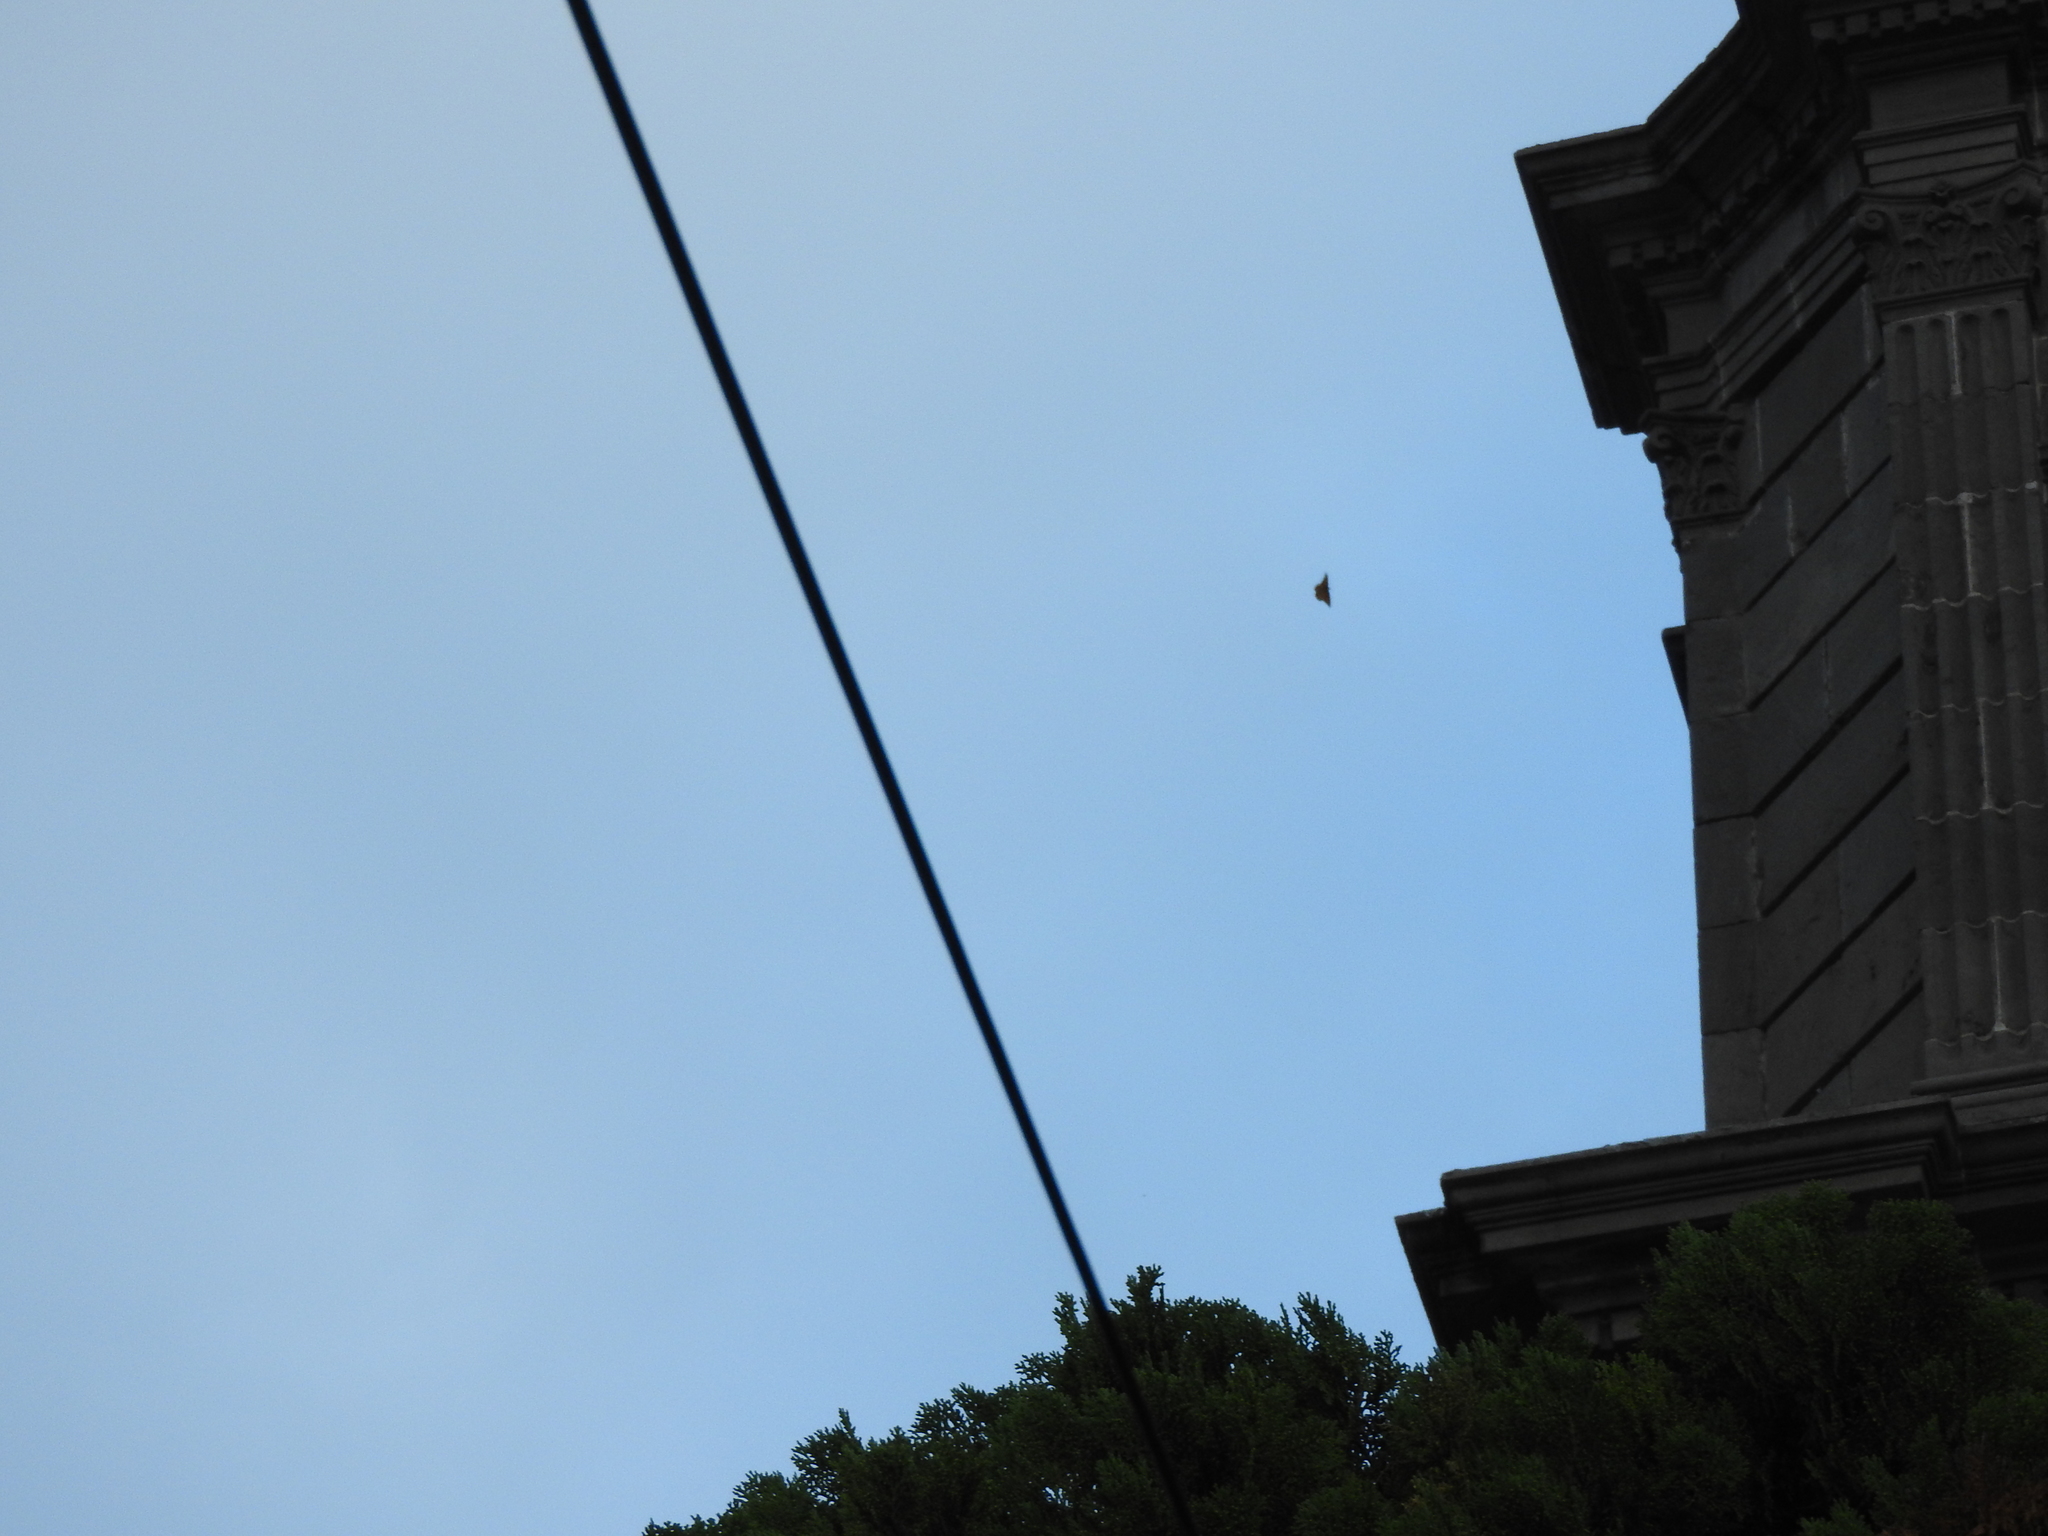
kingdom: Animalia
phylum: Arthropoda
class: Insecta
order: Lepidoptera
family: Nymphalidae
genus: Danaus
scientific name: Danaus plexippus
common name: Monarch
